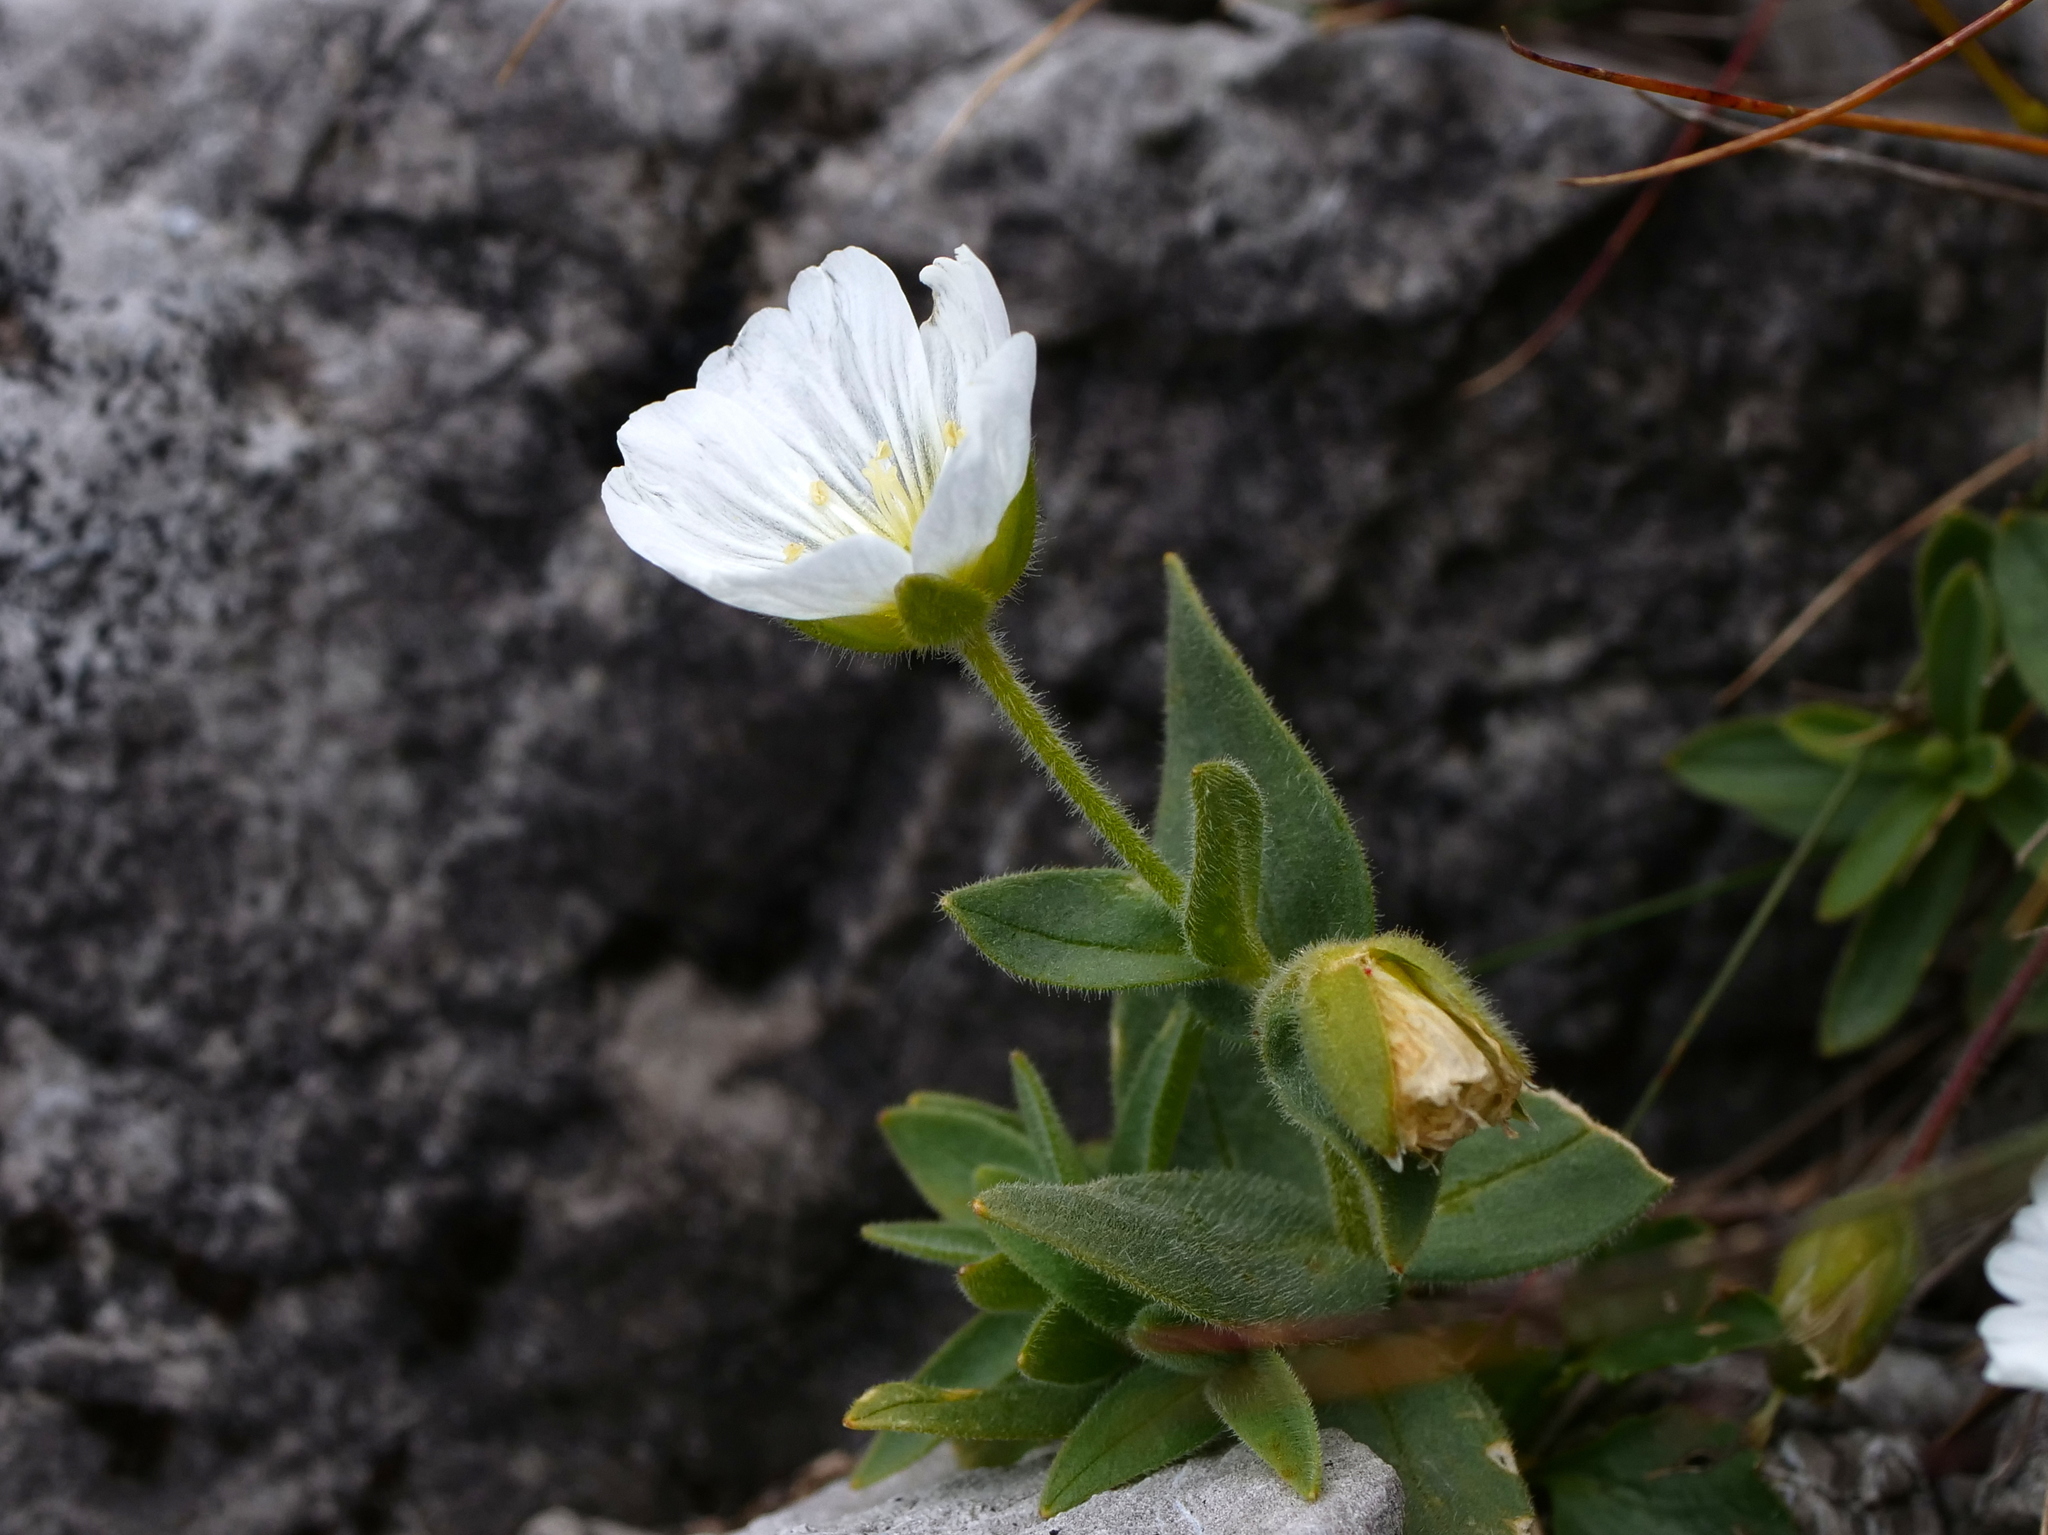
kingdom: Plantae
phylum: Tracheophyta
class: Magnoliopsida
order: Caryophyllales
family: Caryophyllaceae
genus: Cerastium
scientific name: Cerastium latifolium
